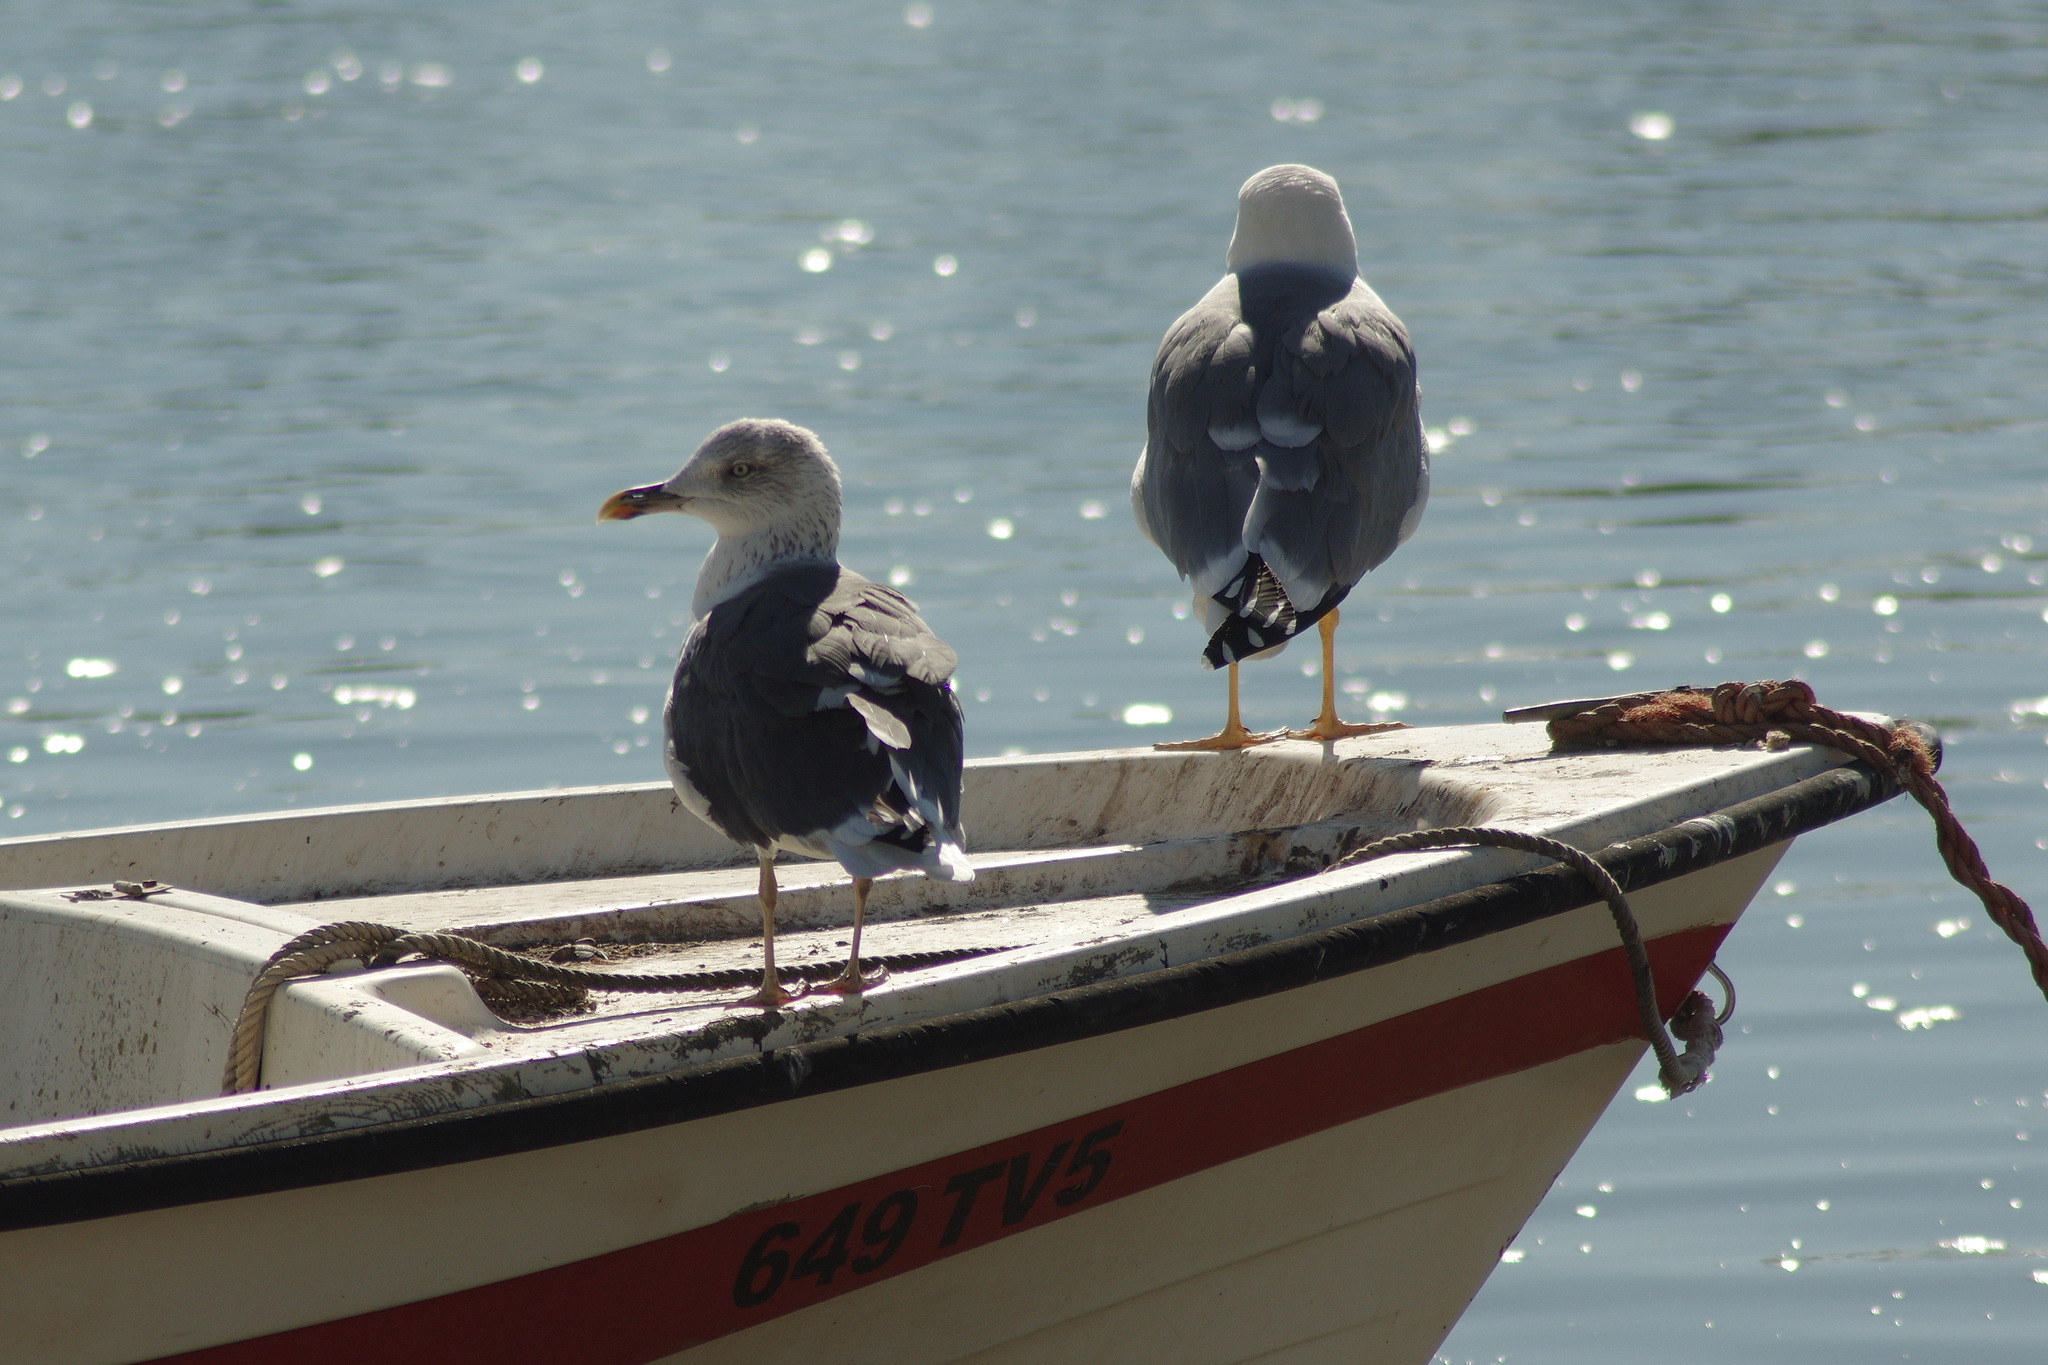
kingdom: Animalia
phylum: Chordata
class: Aves
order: Charadriiformes
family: Laridae
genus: Larus
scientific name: Larus michahellis
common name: Yellow-legged gull
